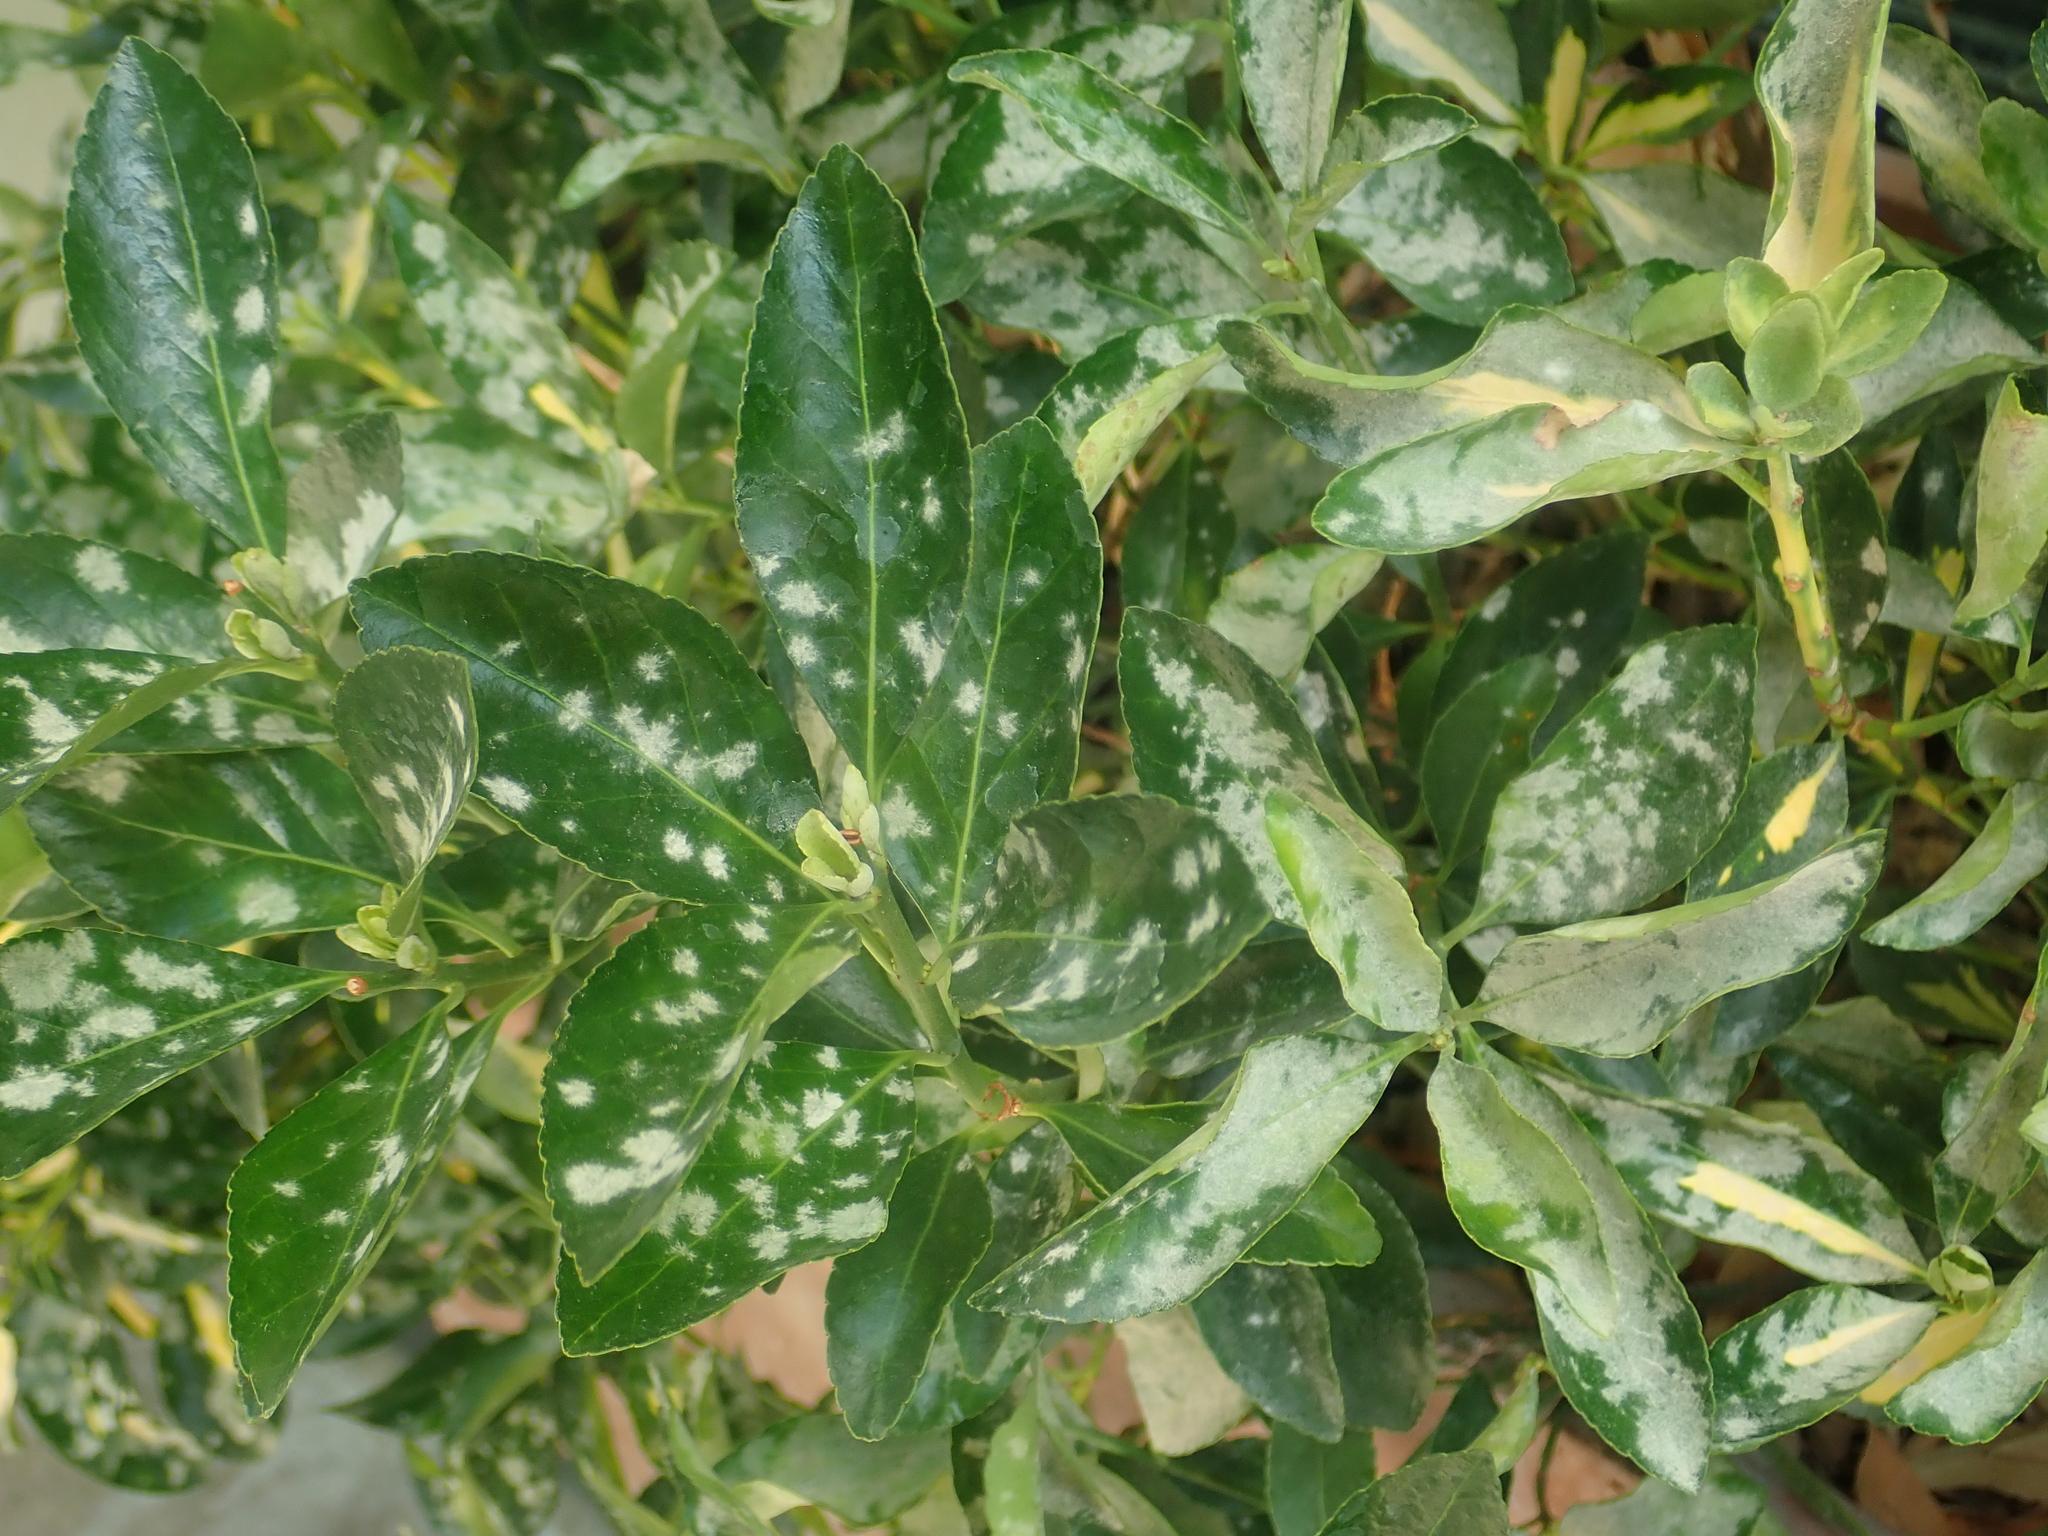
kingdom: Fungi
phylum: Ascomycota
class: Leotiomycetes
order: Helotiales
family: Erysiphaceae
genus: Erysiphe
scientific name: Erysiphe euonymicola
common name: Spindletree mildew
